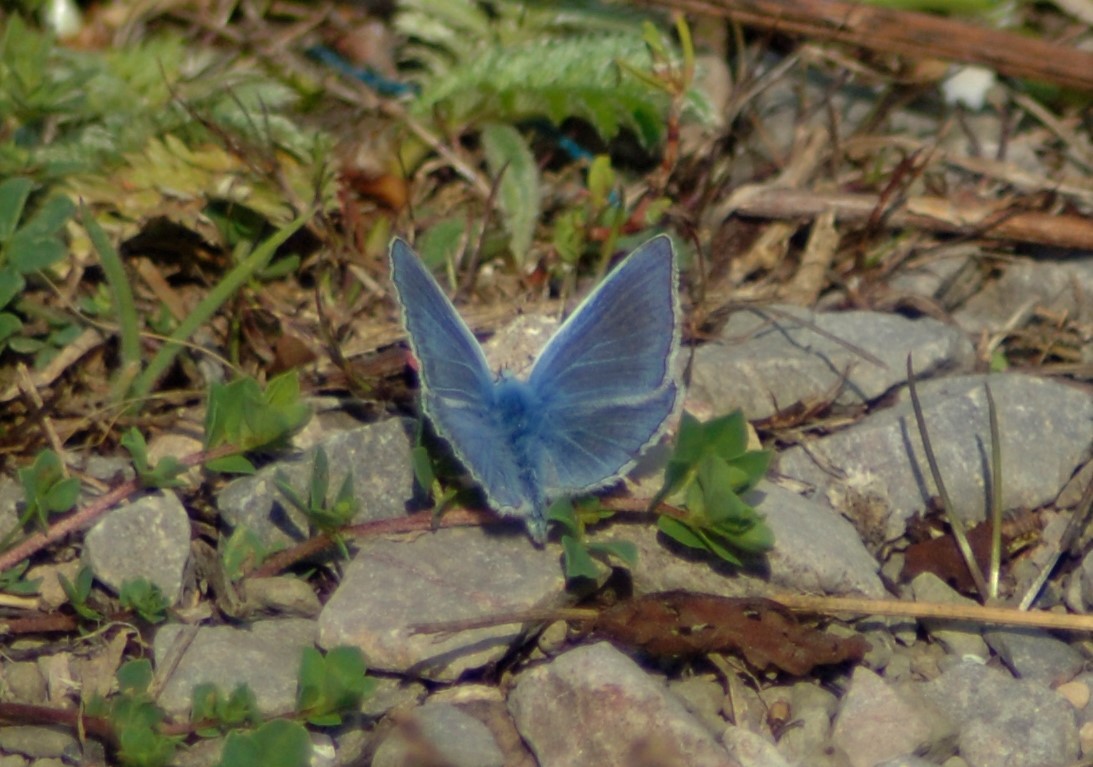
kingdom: Animalia
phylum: Arthropoda
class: Insecta
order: Lepidoptera
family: Lycaenidae
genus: Polyommatus
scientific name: Polyommatus icarus
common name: Common blue
